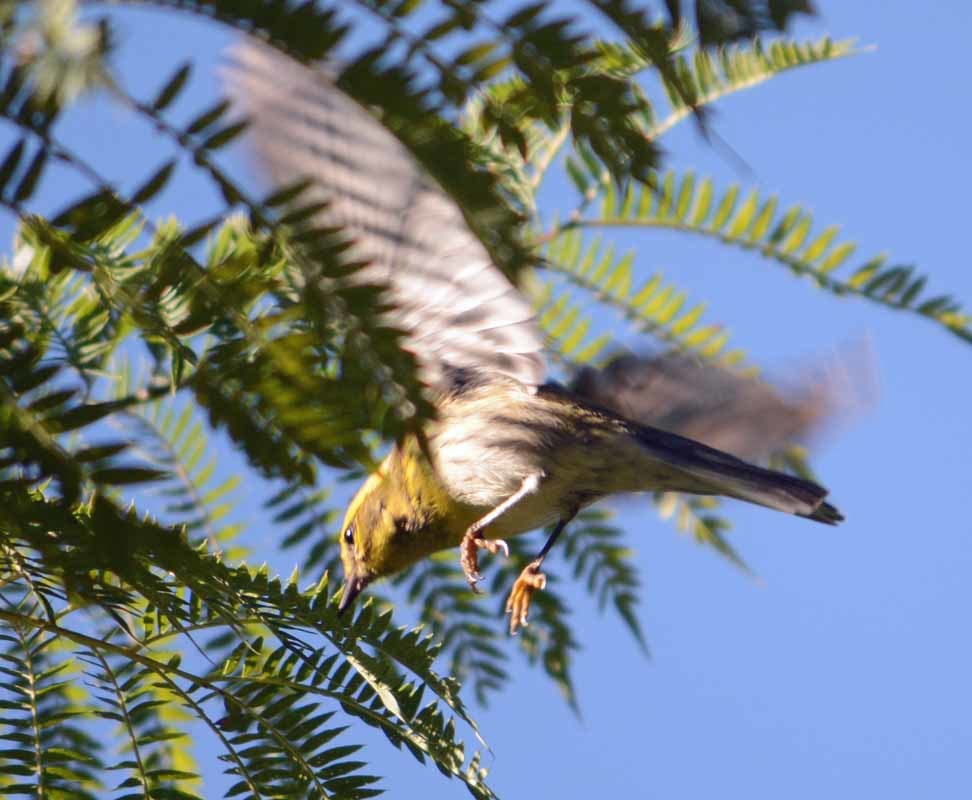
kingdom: Animalia
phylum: Chordata
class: Aves
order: Passeriformes
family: Parulidae
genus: Setophaga
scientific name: Setophaga townsendi
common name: Townsend's warbler
